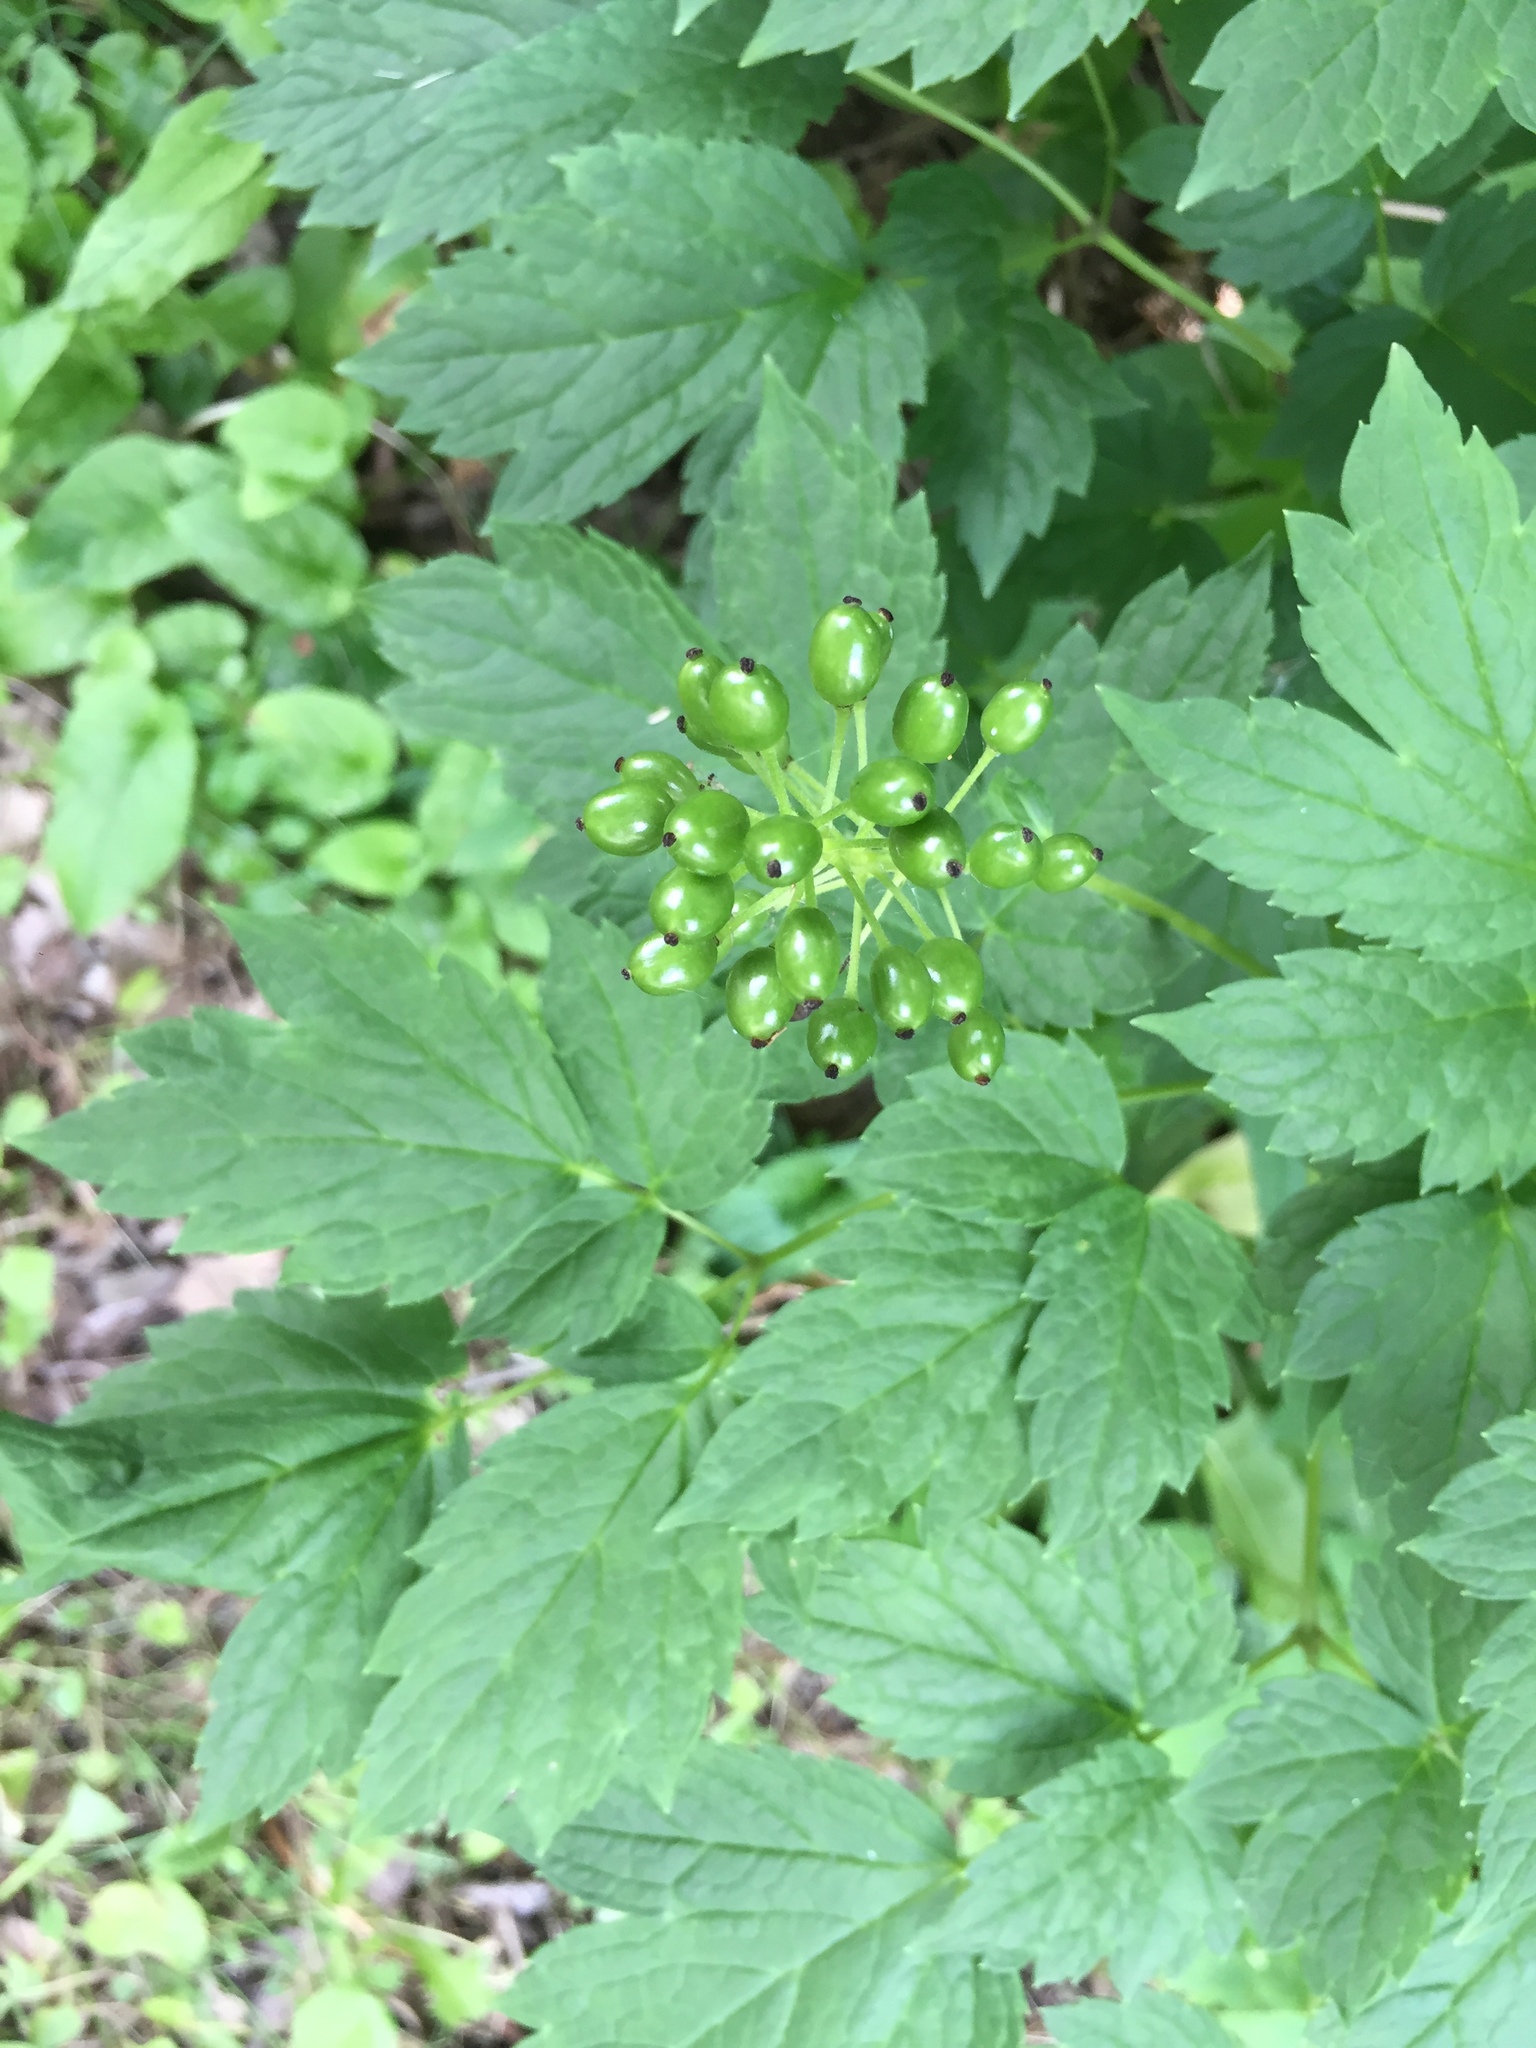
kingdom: Plantae
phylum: Tracheophyta
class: Magnoliopsida
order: Ranunculales
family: Ranunculaceae
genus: Actaea
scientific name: Actaea rubra
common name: Red baneberry
